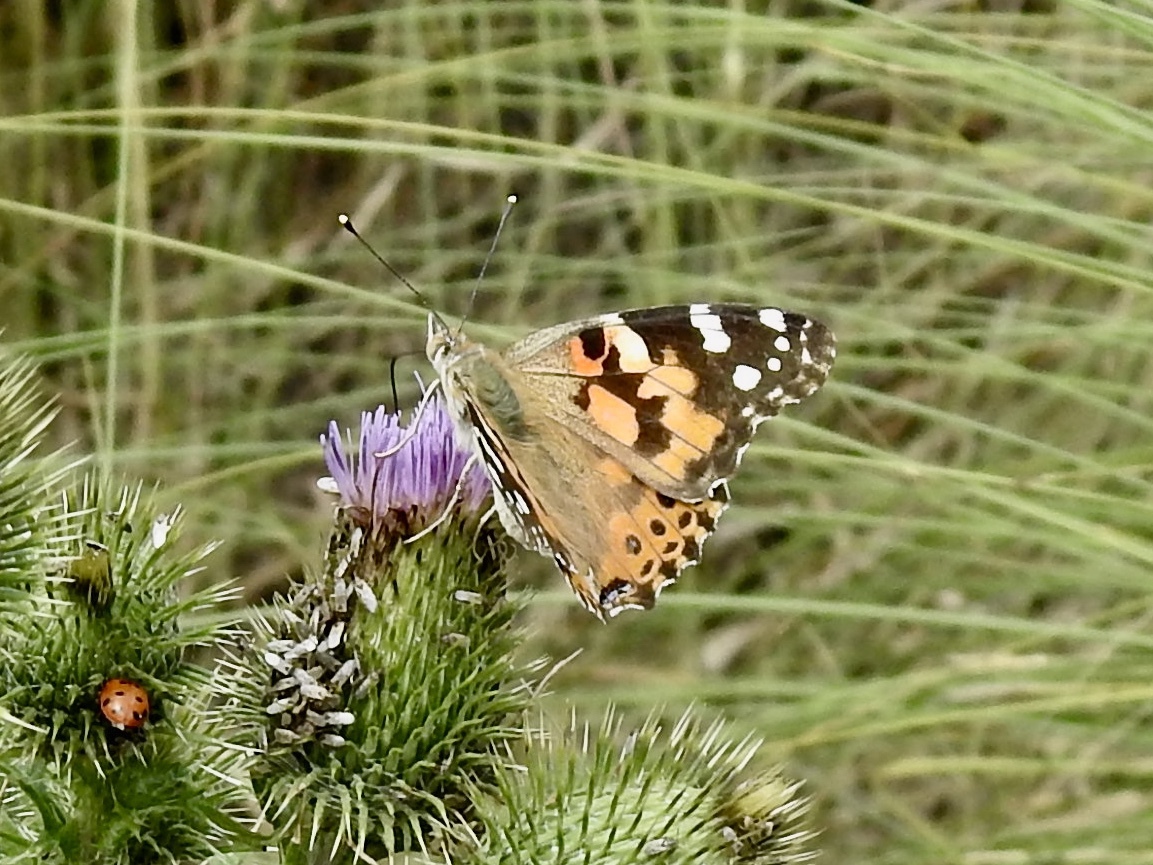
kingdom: Animalia
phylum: Arthropoda
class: Insecta
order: Lepidoptera
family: Nymphalidae
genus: Vanessa
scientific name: Vanessa cardui
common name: Painted lady
